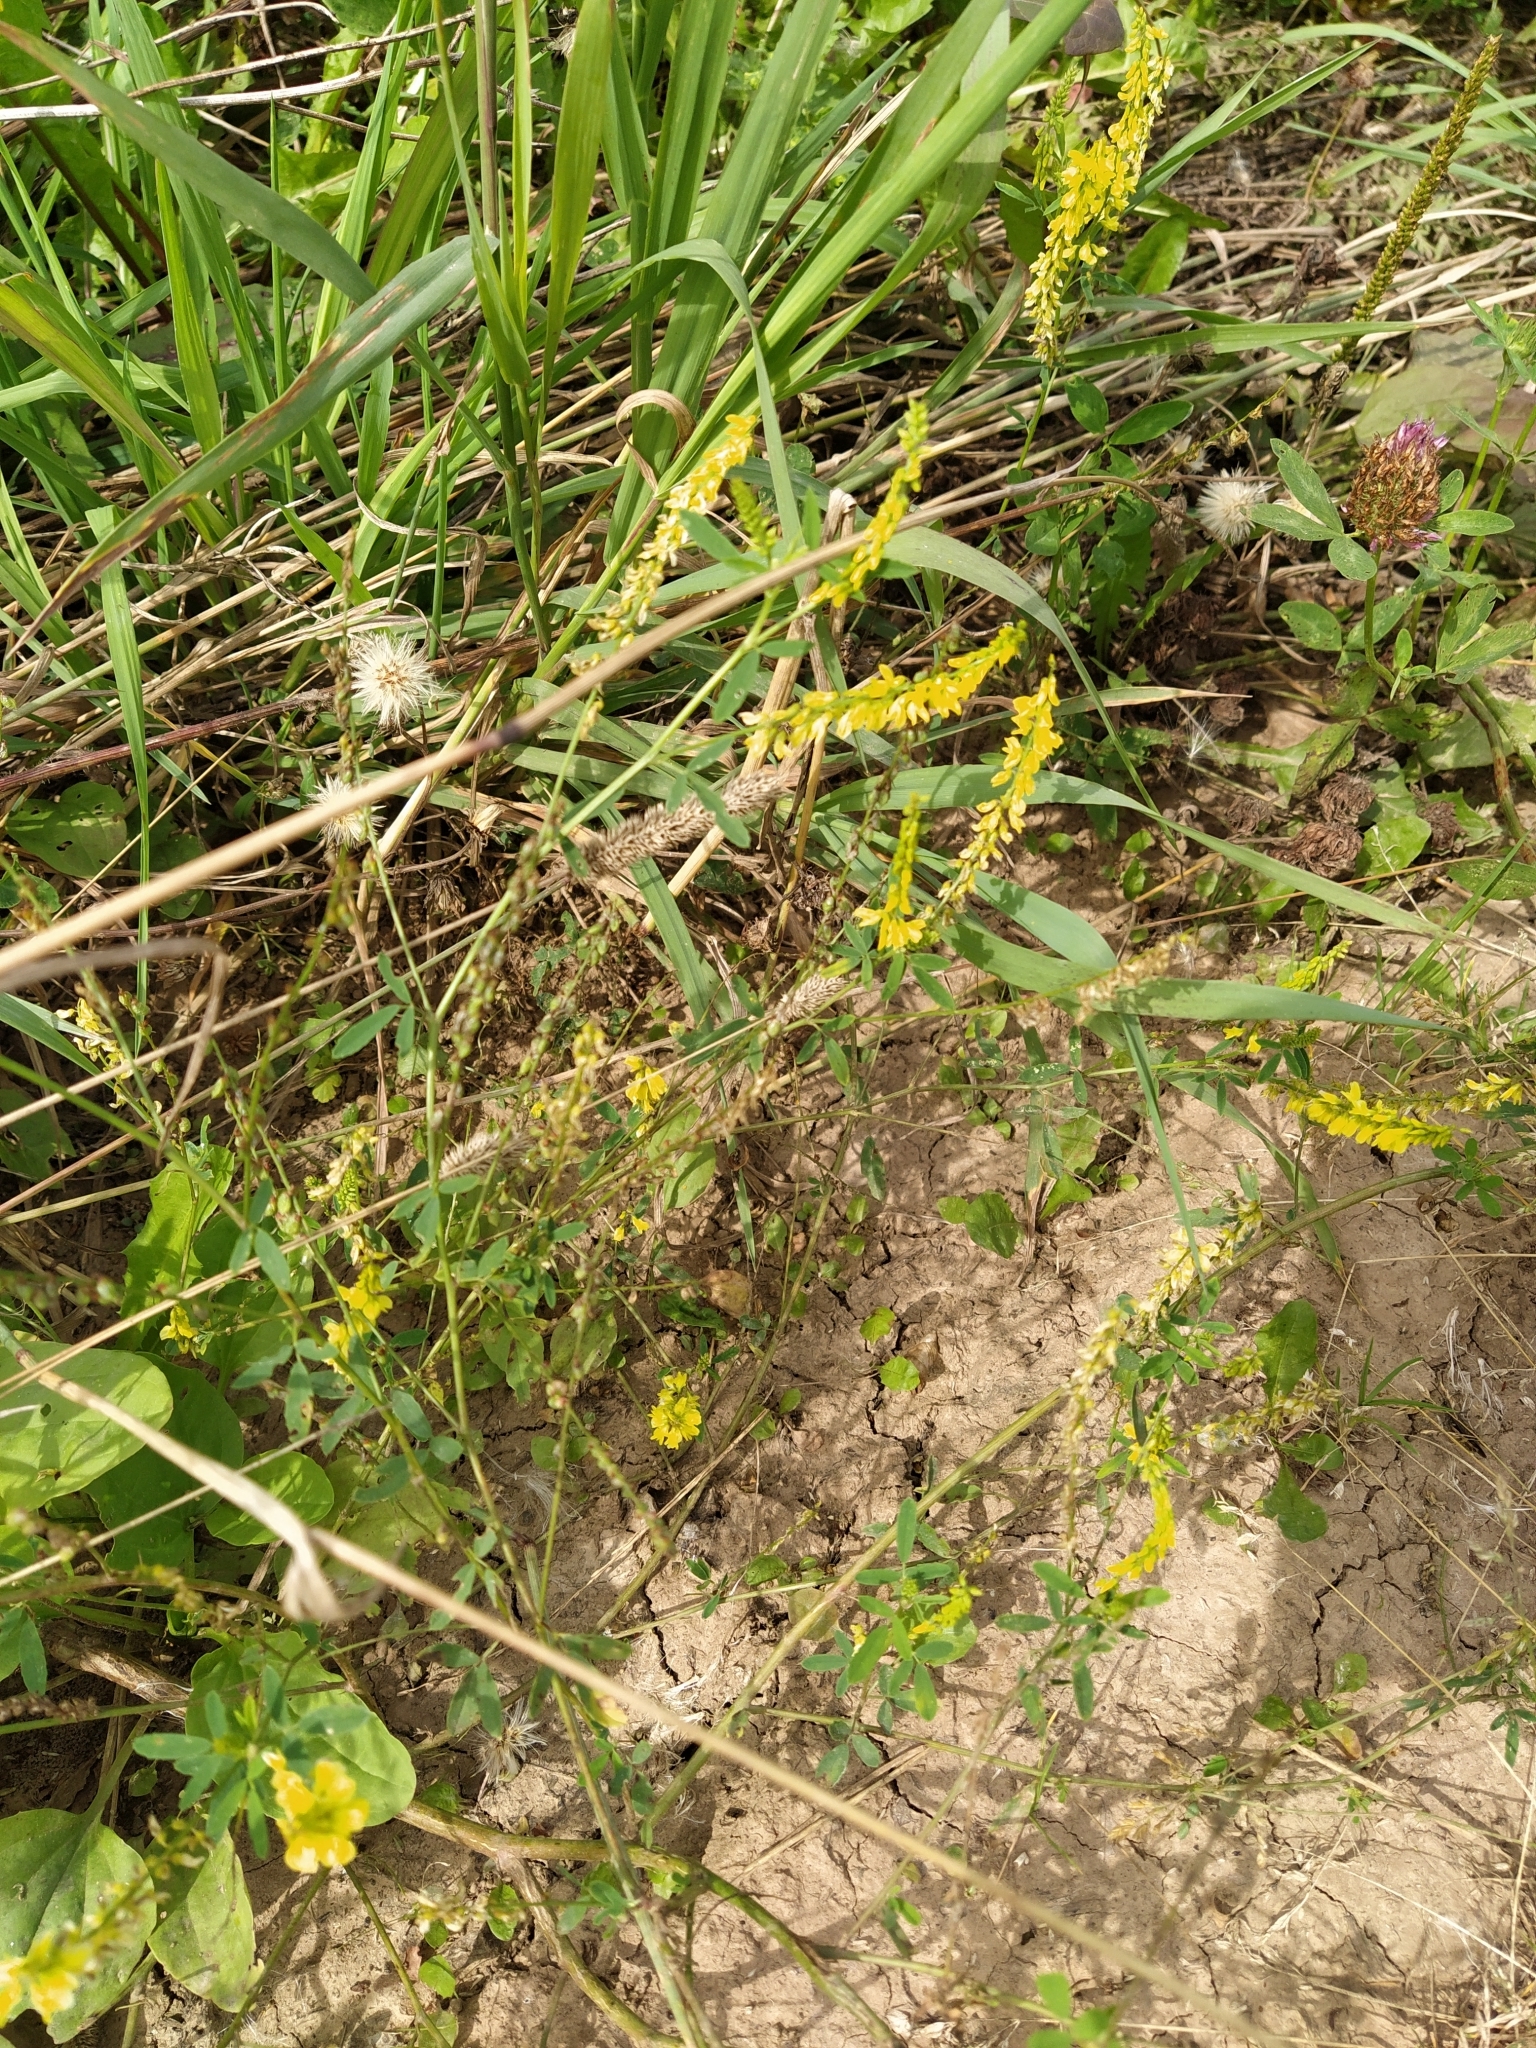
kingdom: Plantae
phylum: Tracheophyta
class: Magnoliopsida
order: Fabales
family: Fabaceae
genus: Melilotus
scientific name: Melilotus officinalis
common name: Sweetclover
